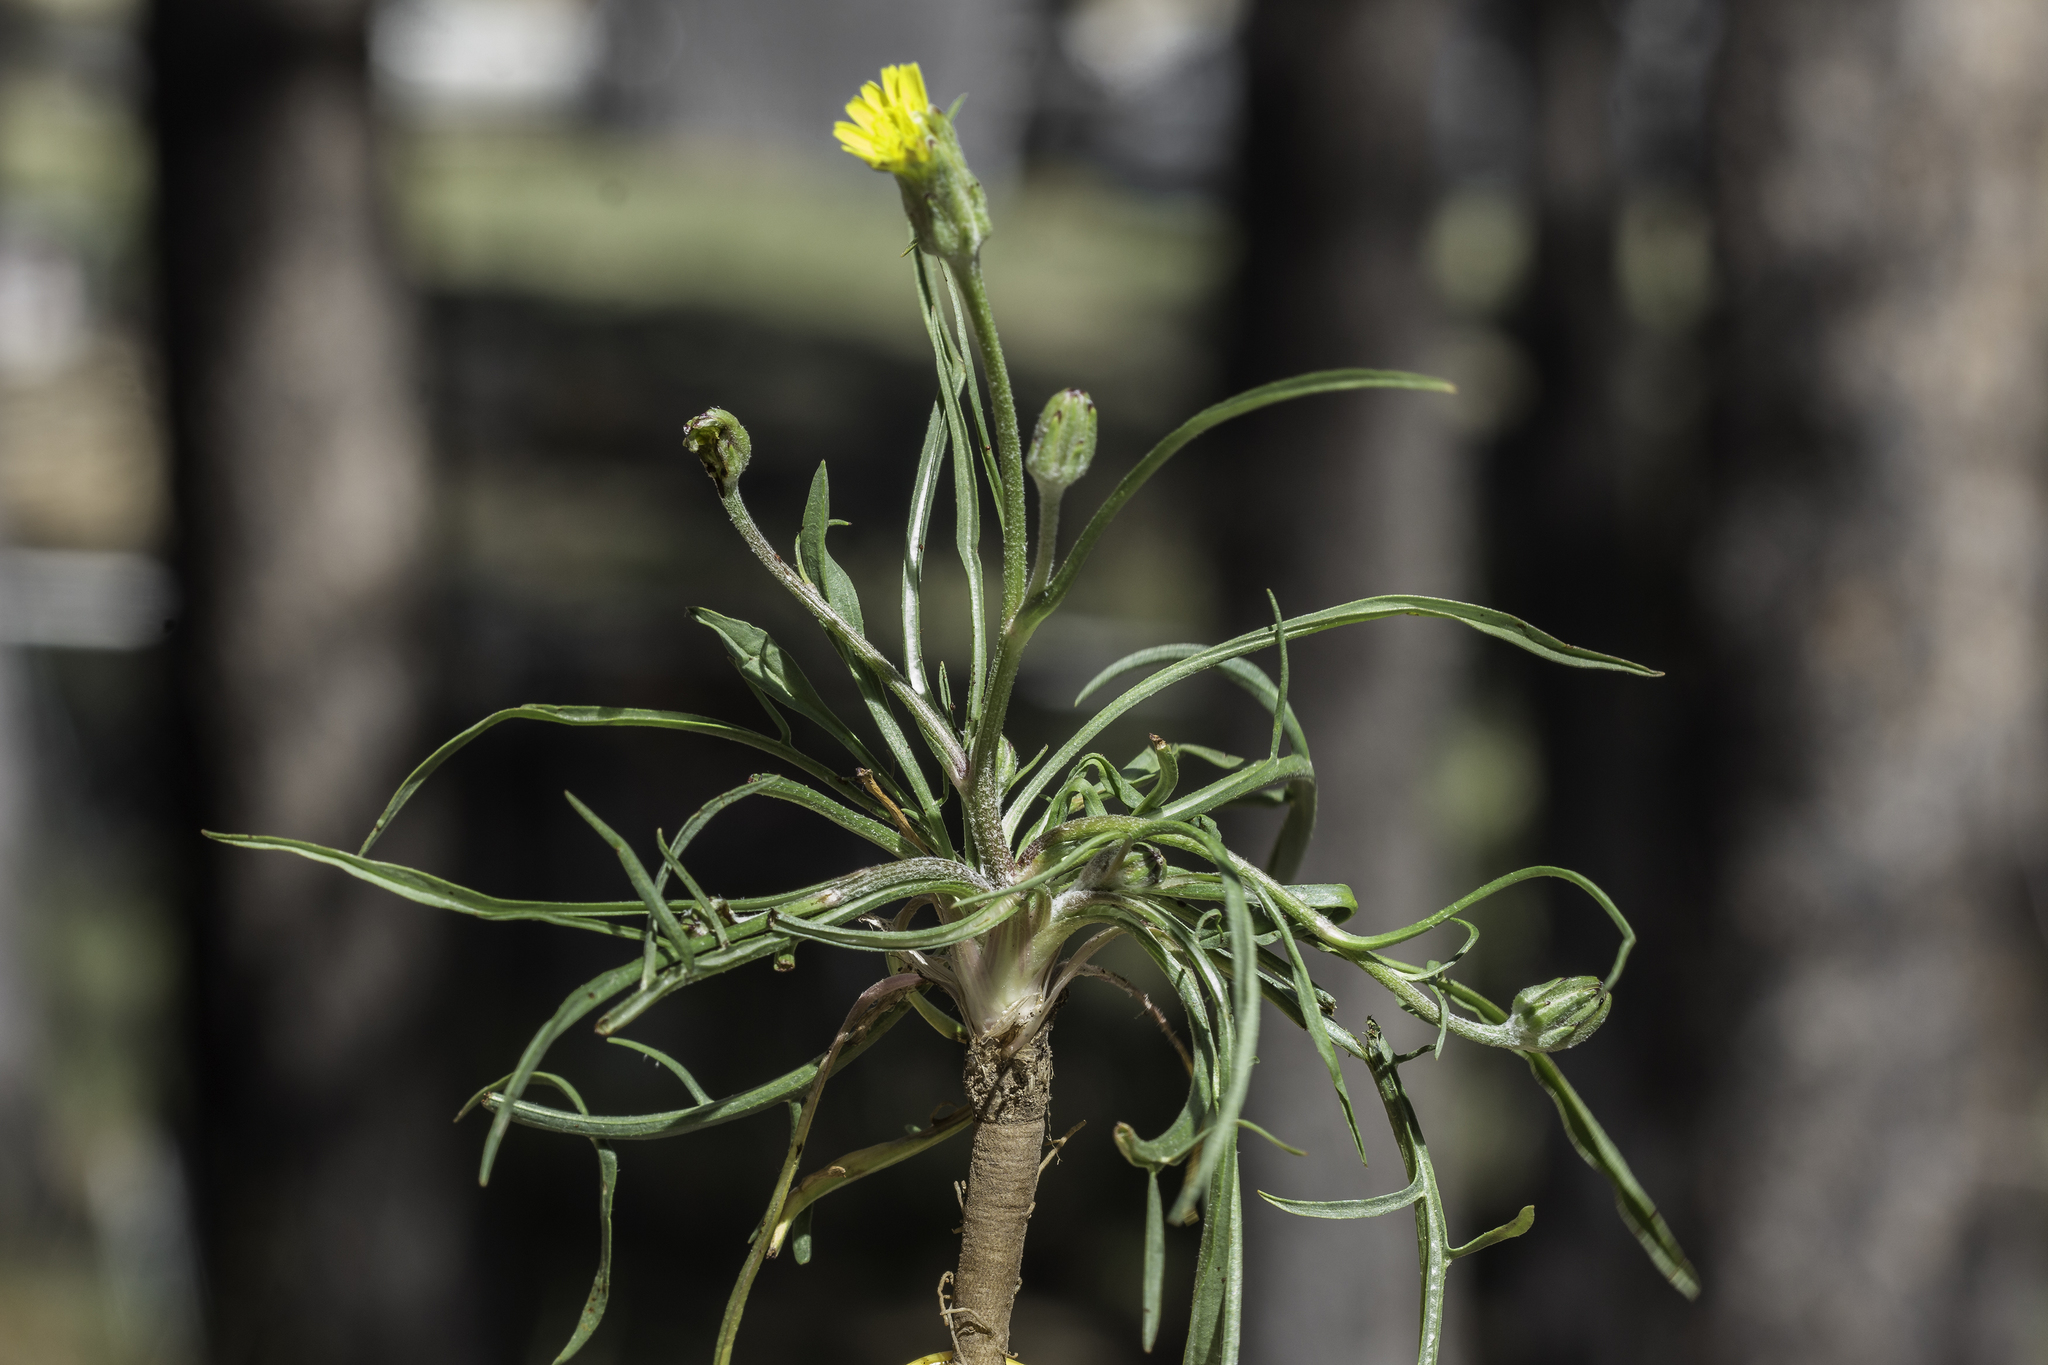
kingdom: Plantae
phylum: Tracheophyta
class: Magnoliopsida
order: Asterales
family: Asteraceae
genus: Scorzonera
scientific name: Scorzonera laciniata
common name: Cutleaf vipergrass
